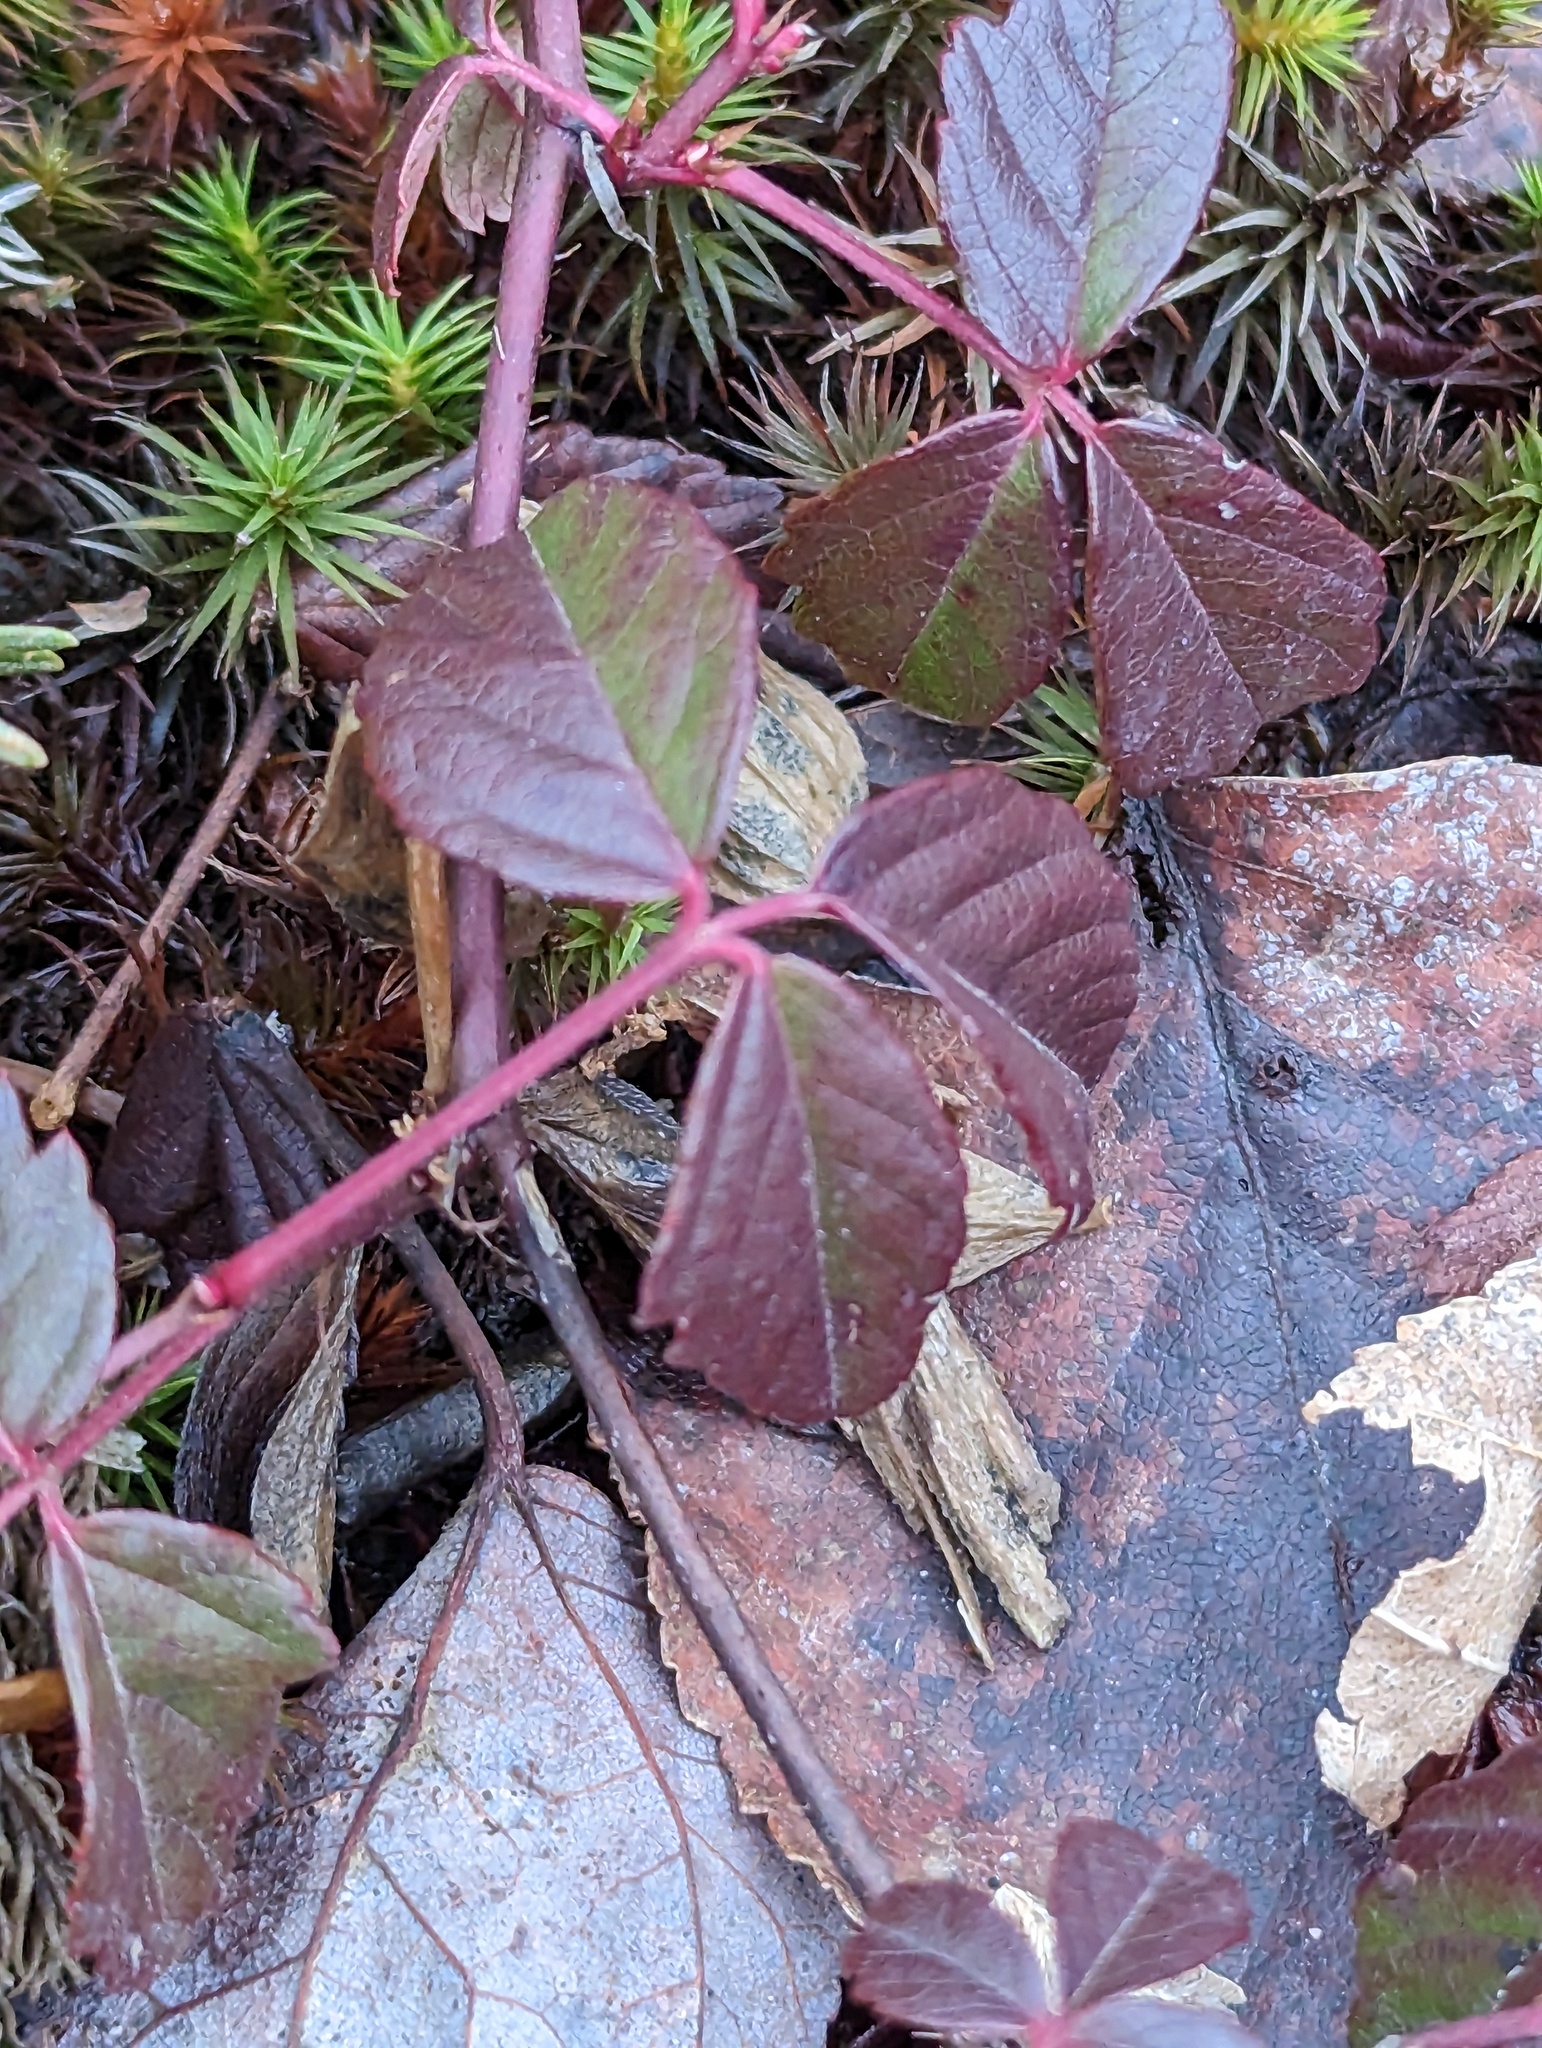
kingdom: Plantae
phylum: Tracheophyta
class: Magnoliopsida
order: Rosales
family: Rosaceae
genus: Rubus
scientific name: Rubus hispidus
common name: Running blackberry
